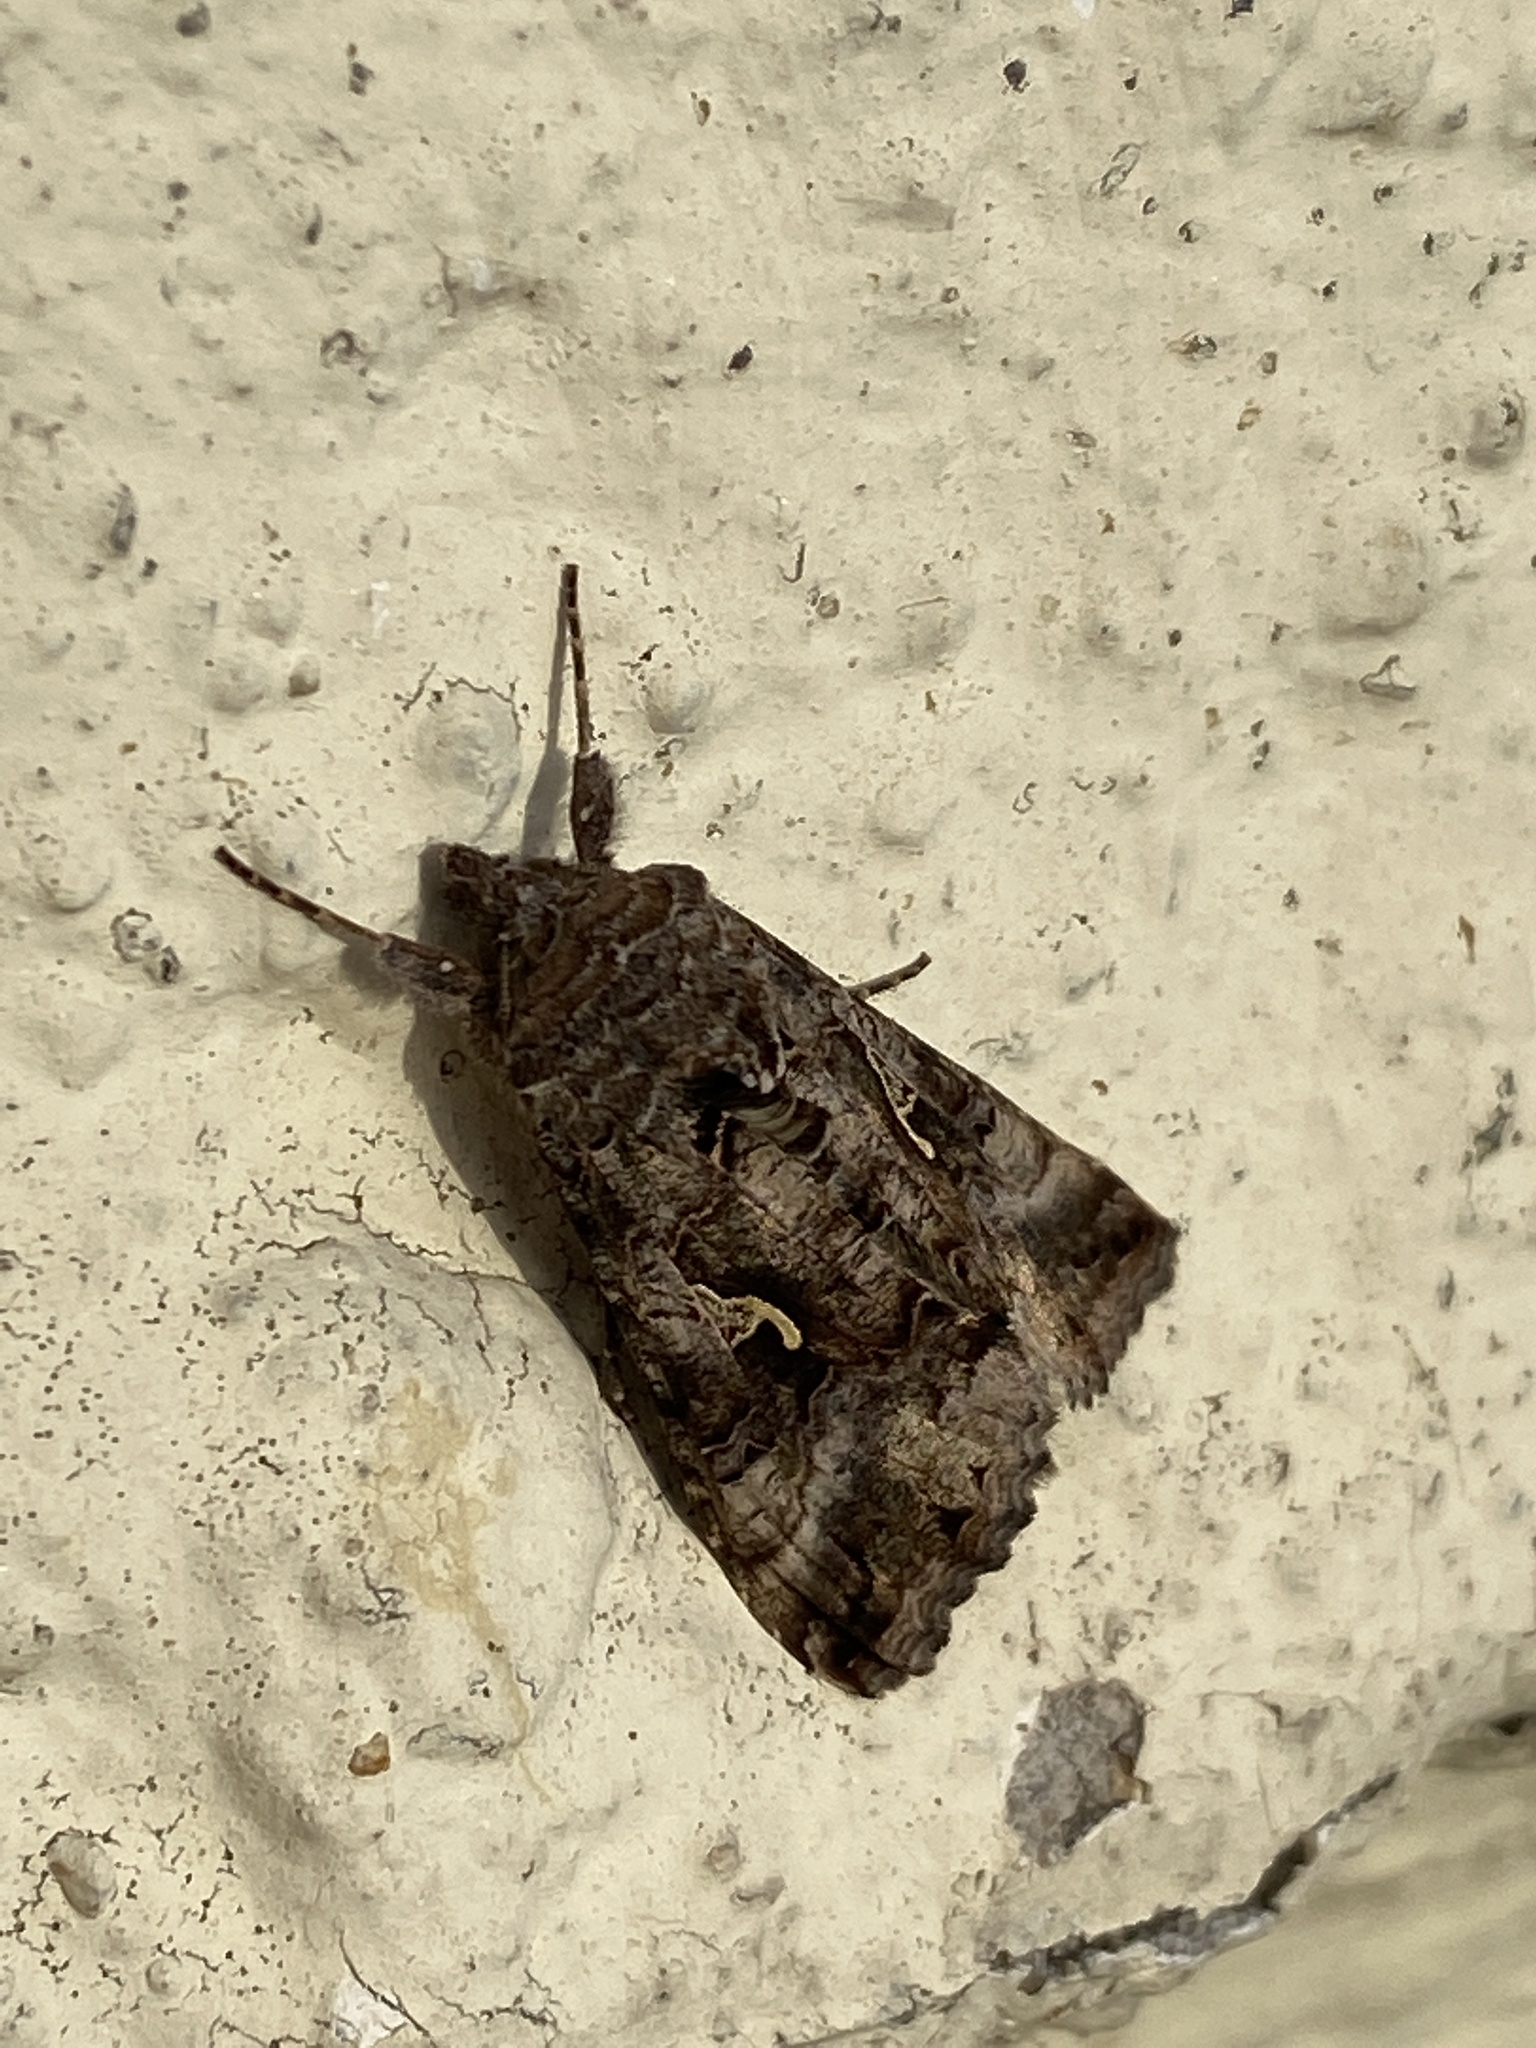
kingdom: Animalia
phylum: Arthropoda
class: Insecta
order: Lepidoptera
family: Noctuidae
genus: Autographa
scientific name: Autographa gamma
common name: Silver y
